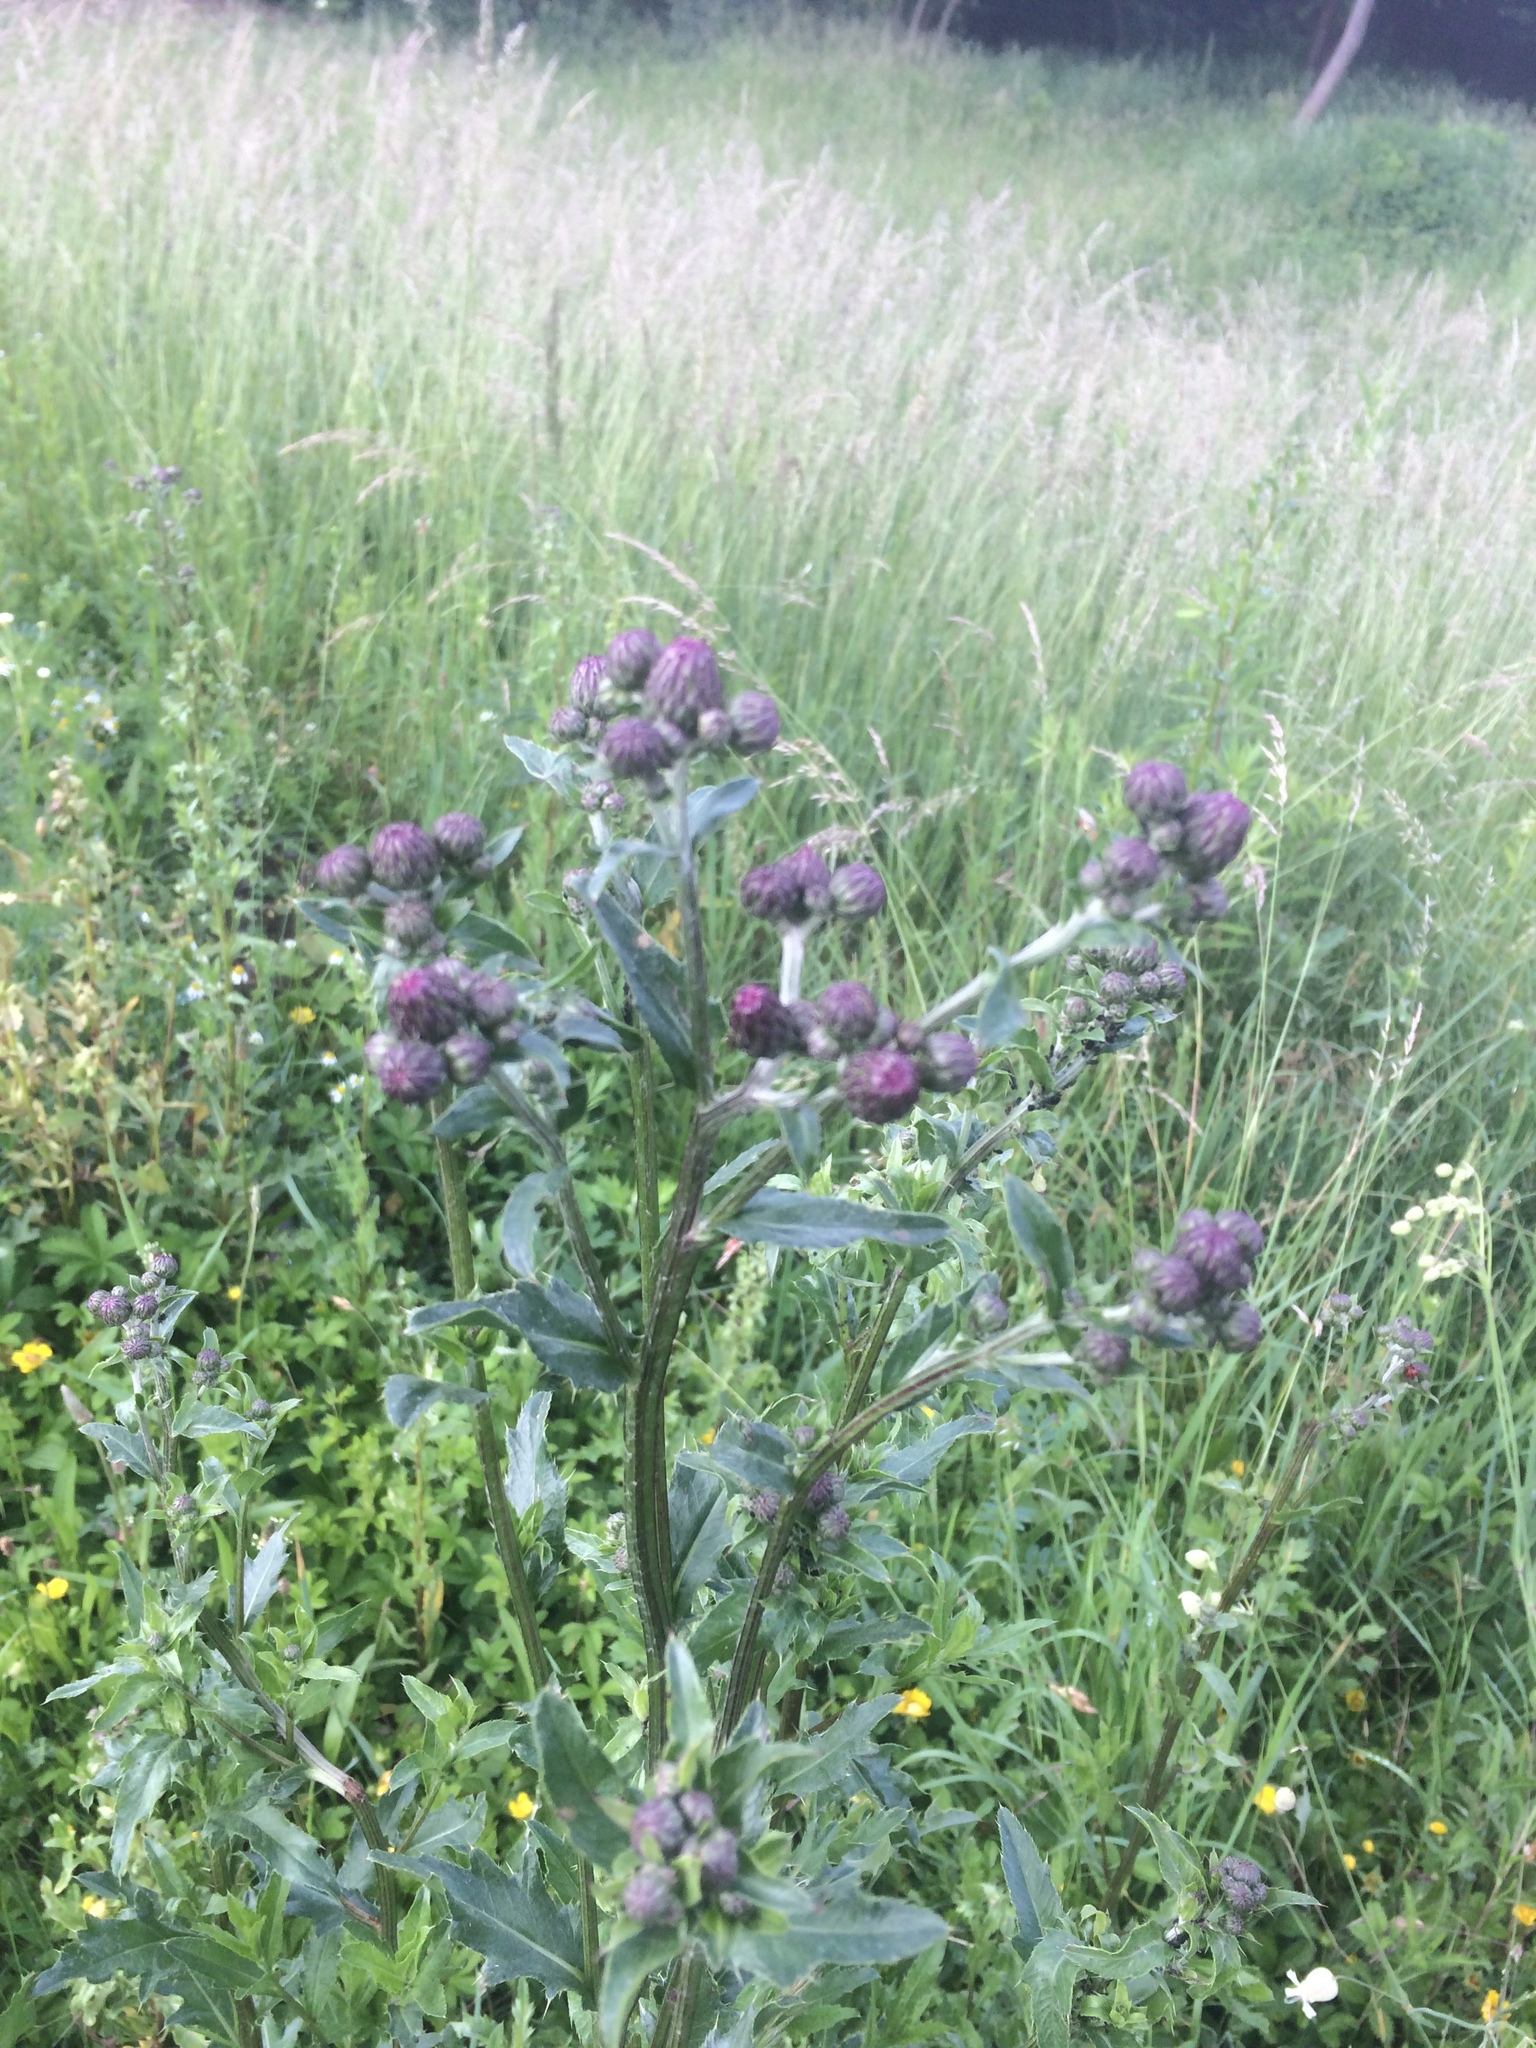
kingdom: Plantae
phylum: Tracheophyta
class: Magnoliopsida
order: Asterales
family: Asteraceae
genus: Cirsium
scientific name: Cirsium arvense
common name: Creeping thistle
